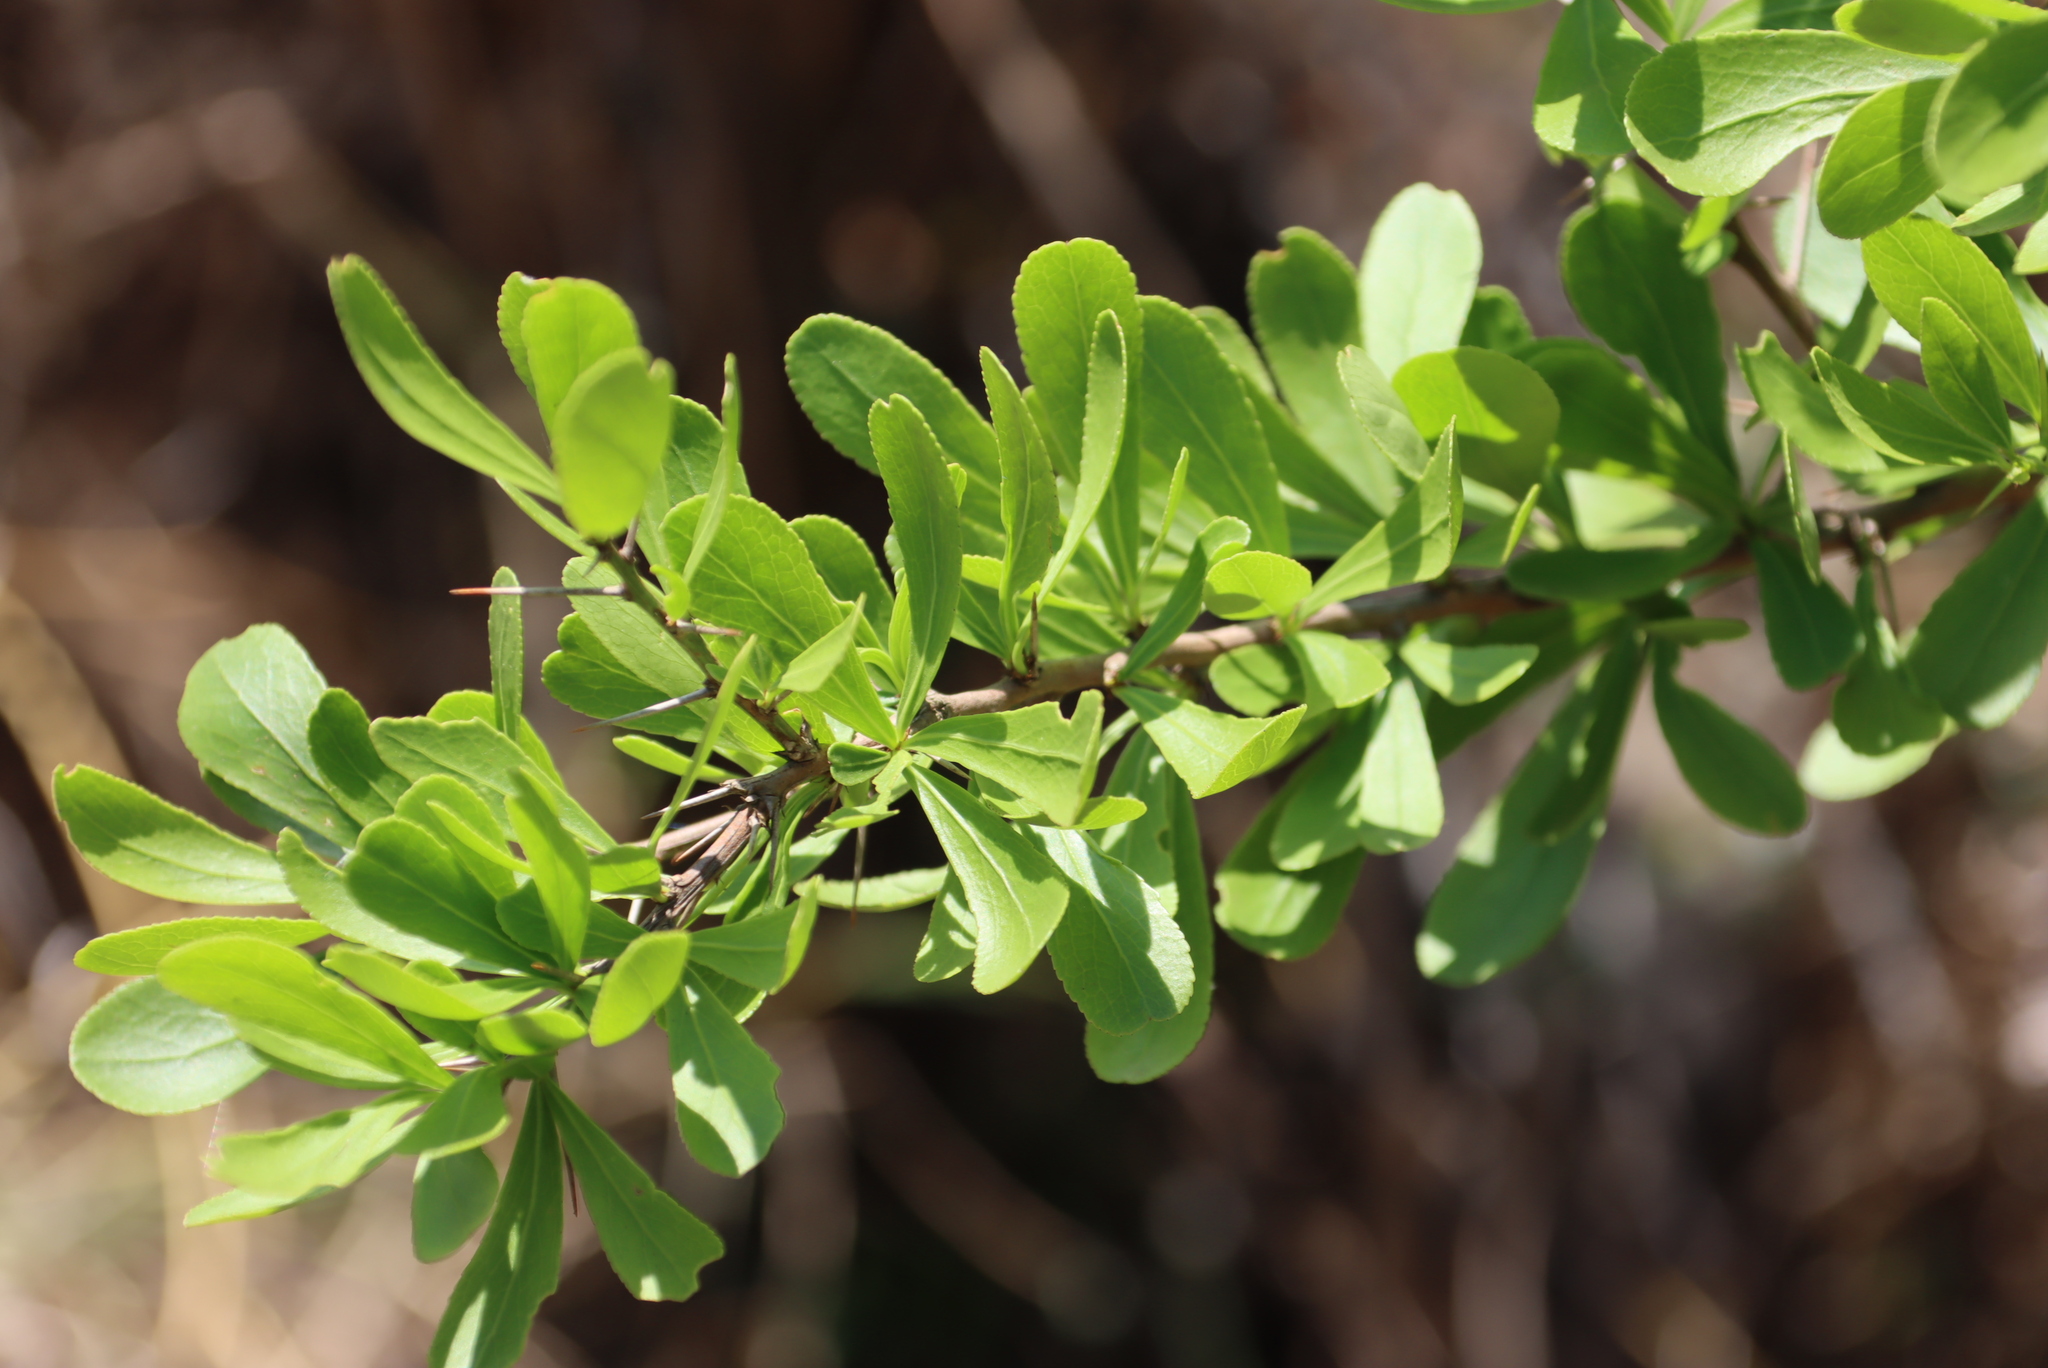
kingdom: Plantae
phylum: Tracheophyta
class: Magnoliopsida
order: Celastrales
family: Celastraceae
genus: Gymnosporia
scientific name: Gymnosporia buxifolia
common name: Common spike-thorn
